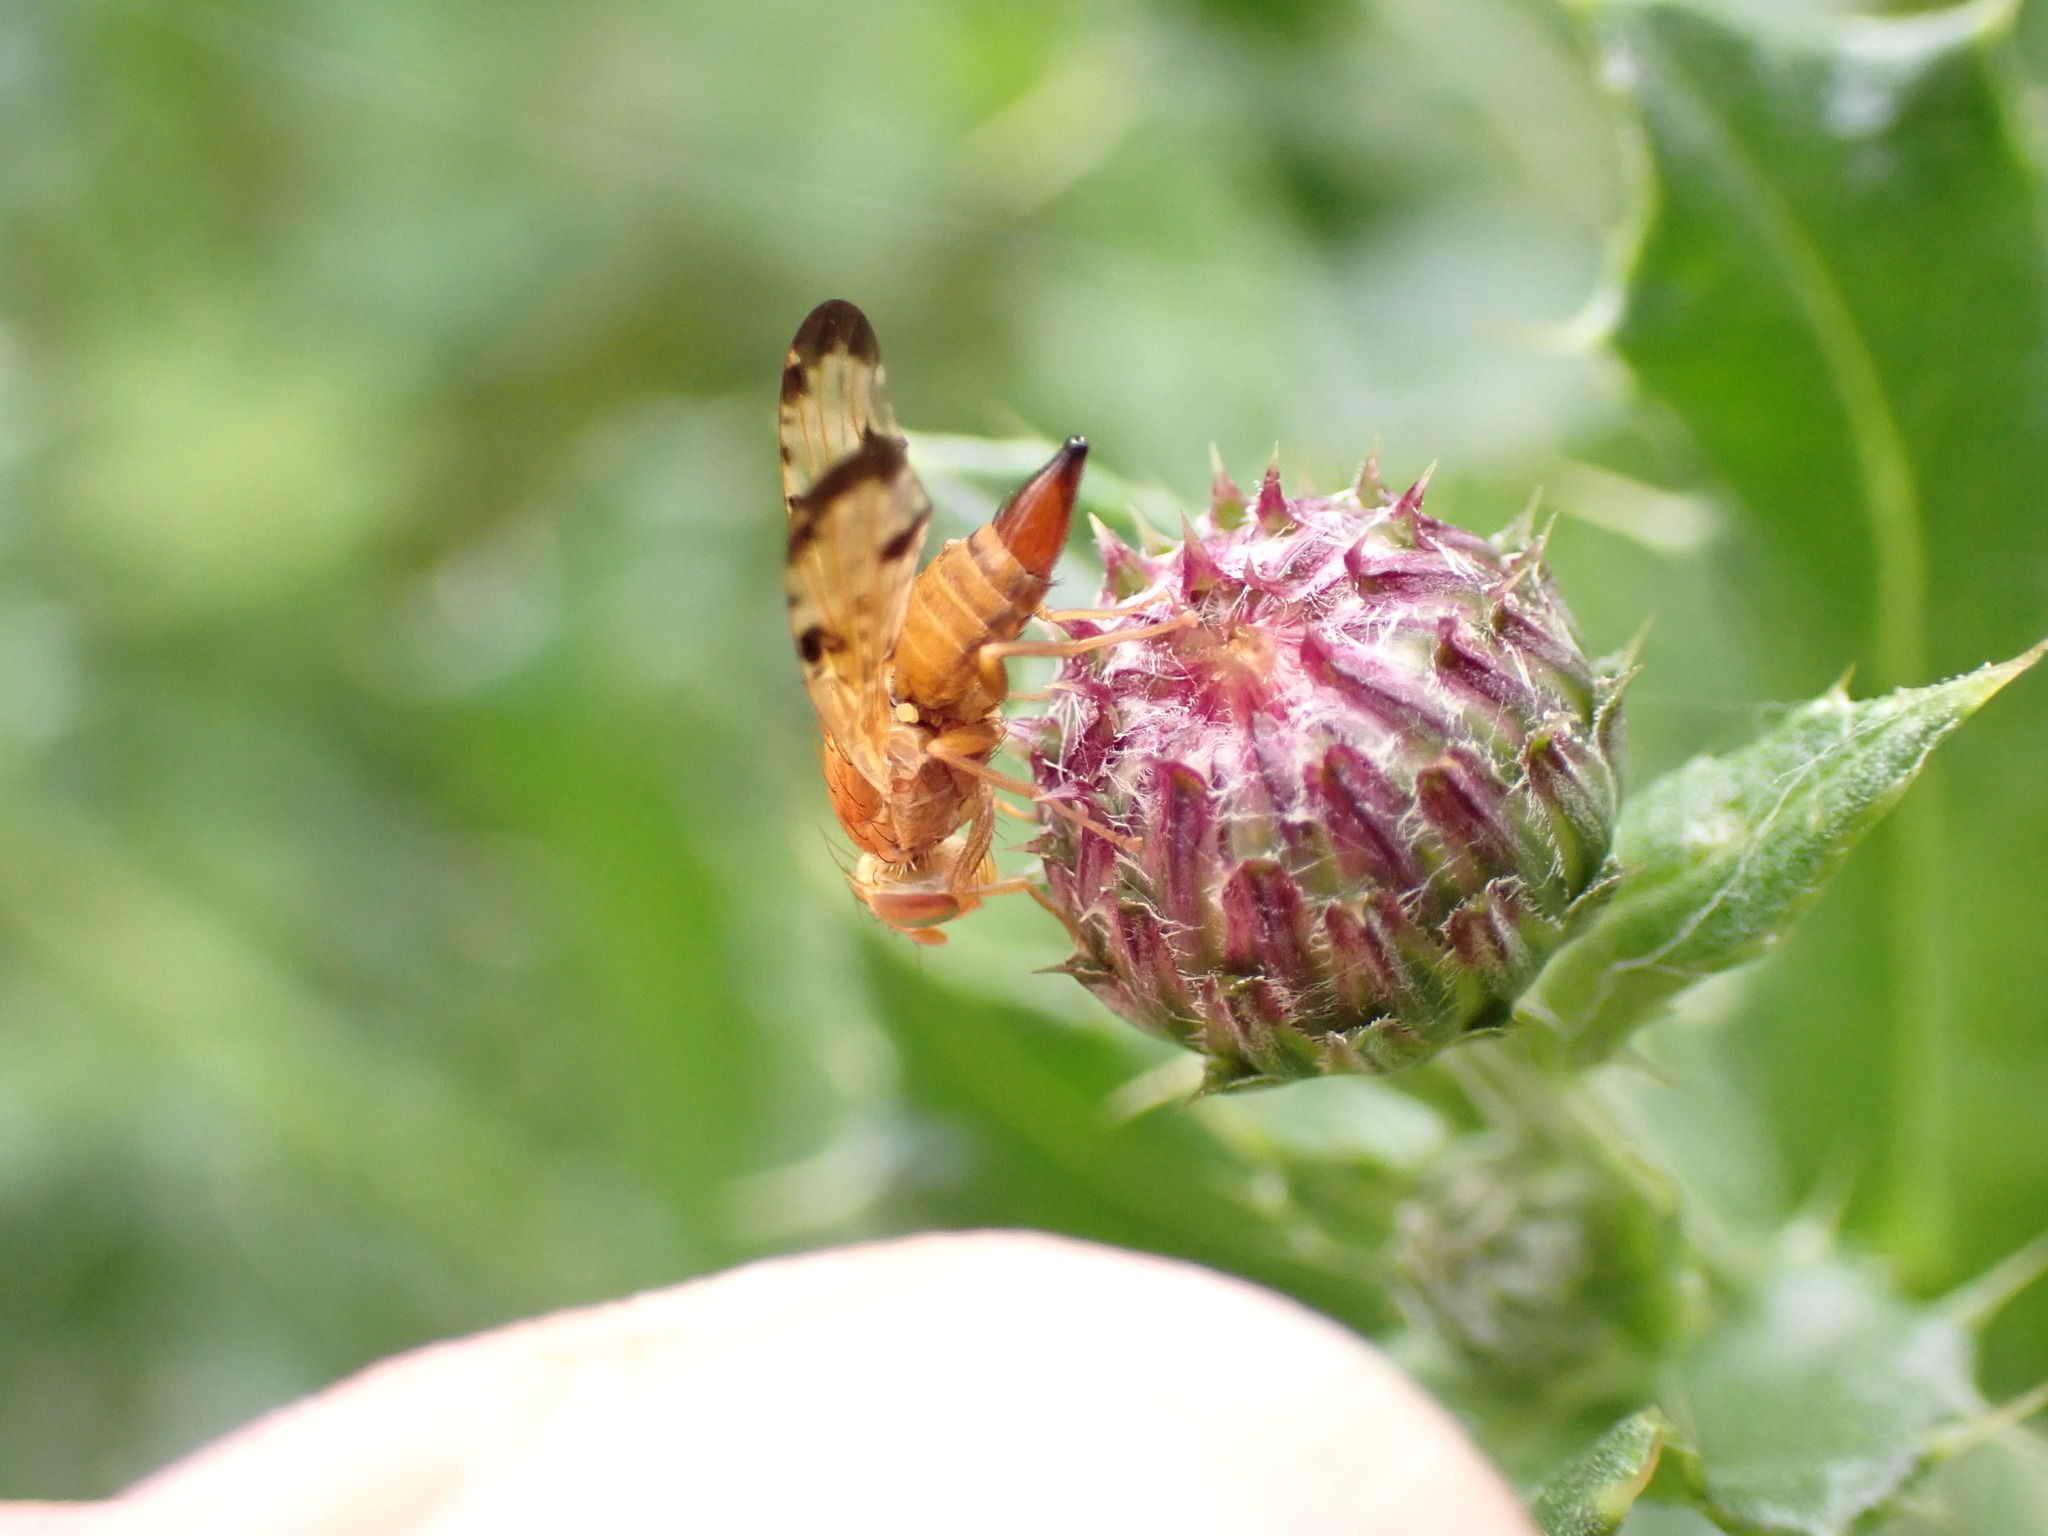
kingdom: Animalia
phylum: Arthropoda
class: Insecta
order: Diptera
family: Tephritidae
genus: Xyphosia
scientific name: Xyphosia miliaria
